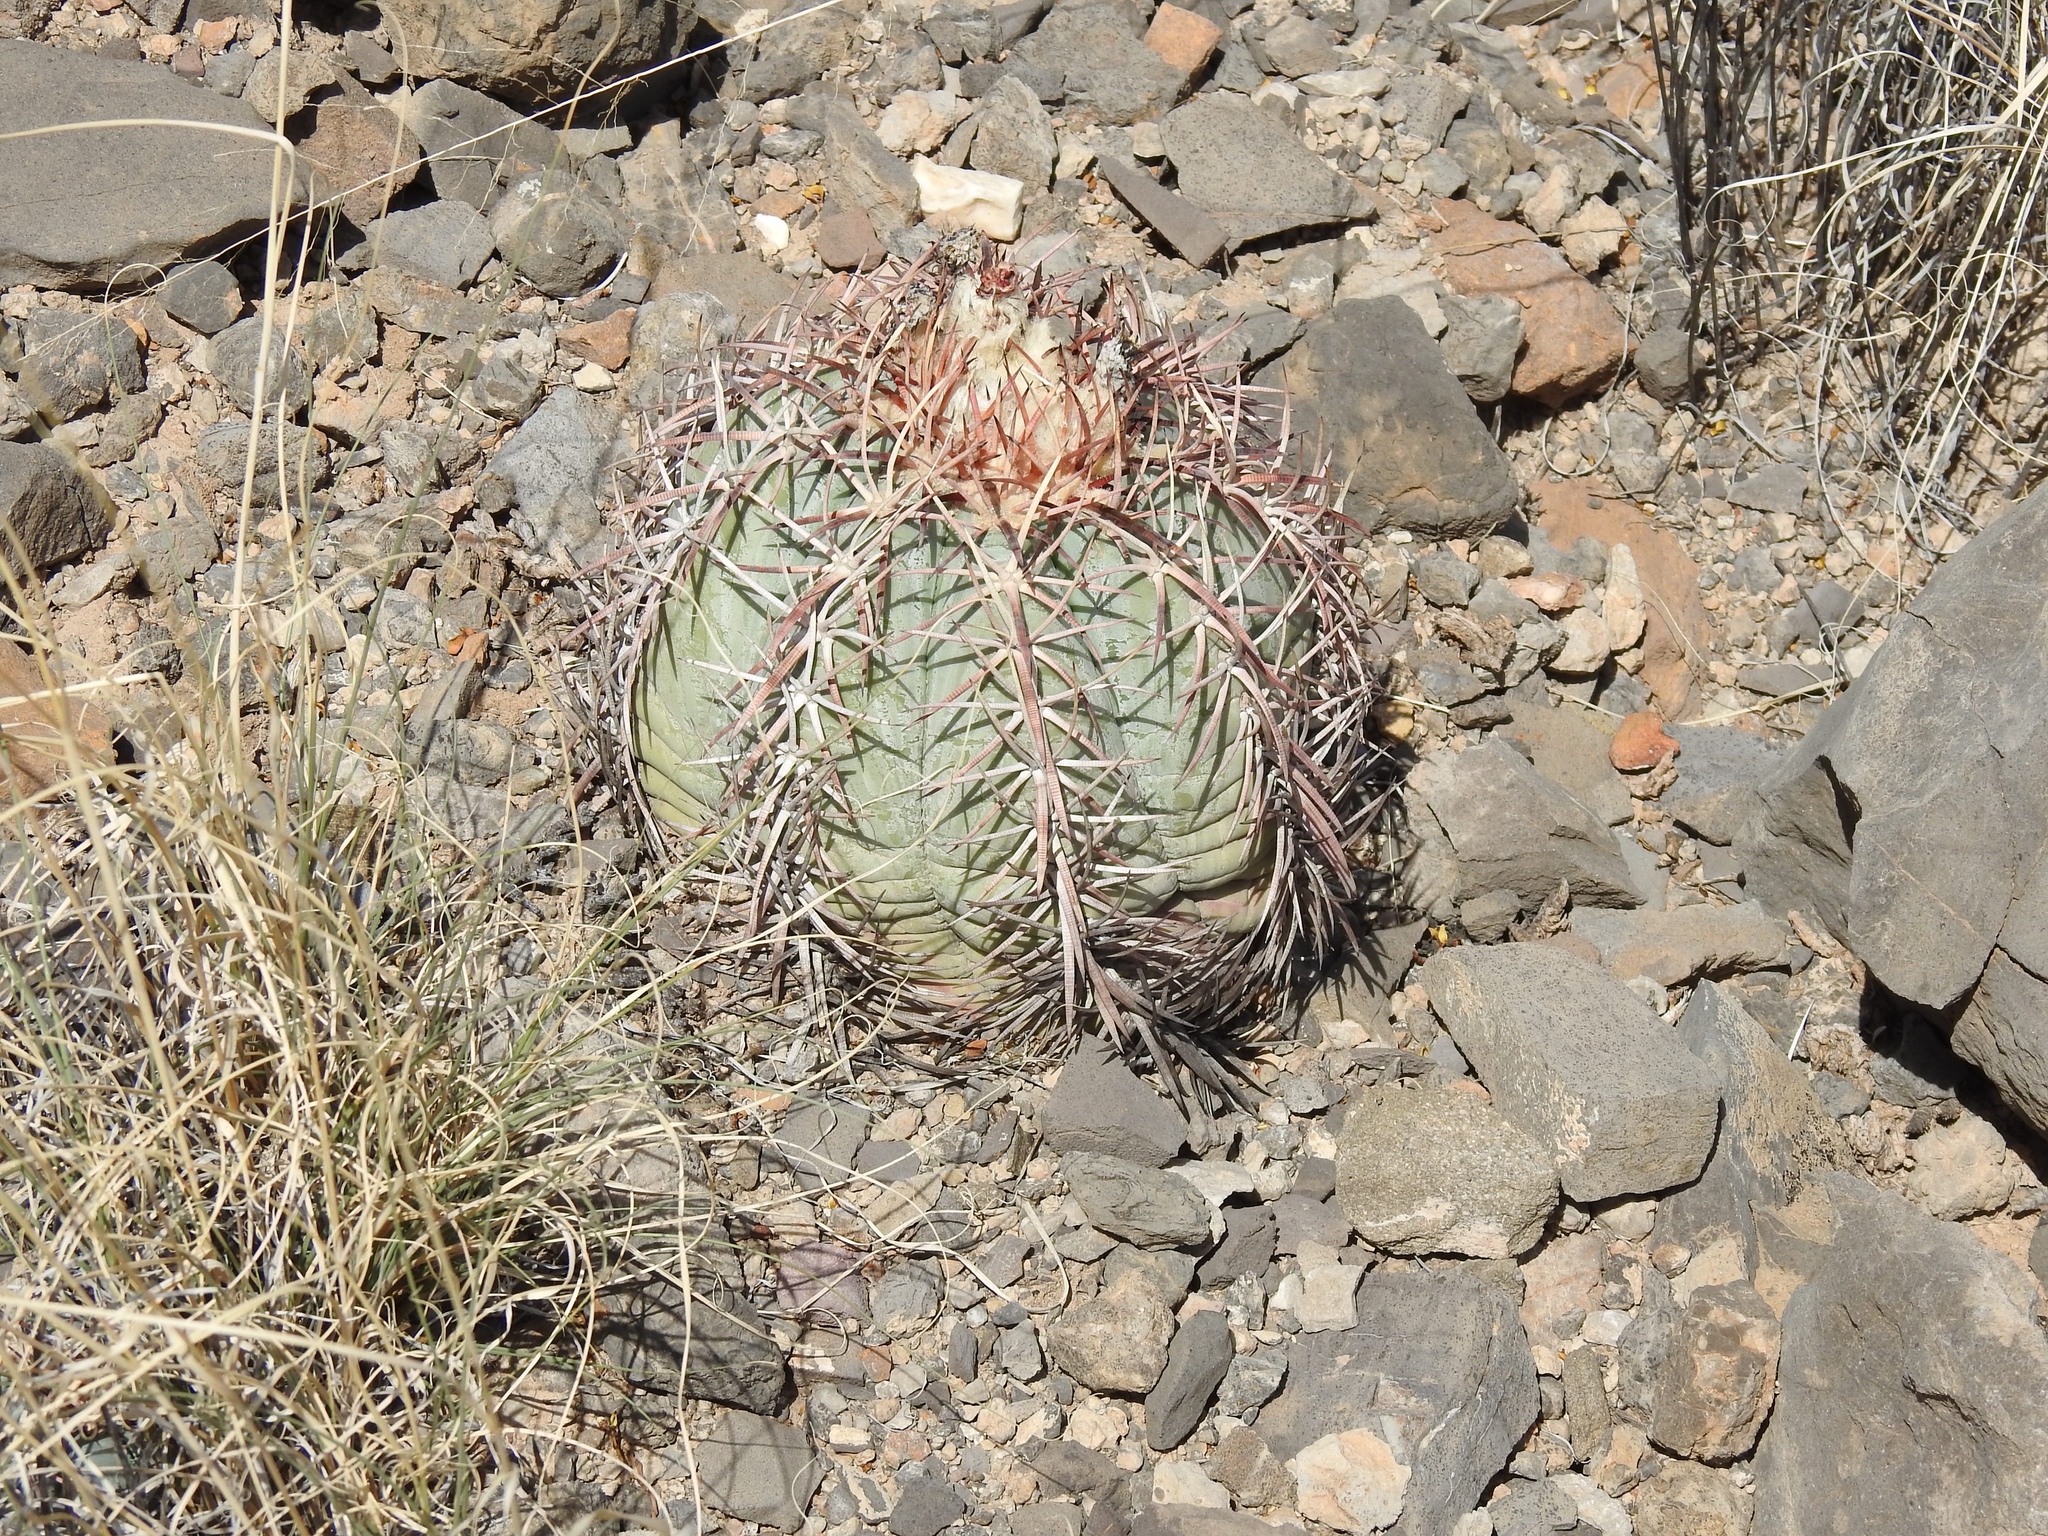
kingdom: Plantae
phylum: Tracheophyta
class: Magnoliopsida
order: Caryophyllales
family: Cactaceae
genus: Echinocactus
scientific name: Echinocactus horizonthalonius
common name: Devilshead
